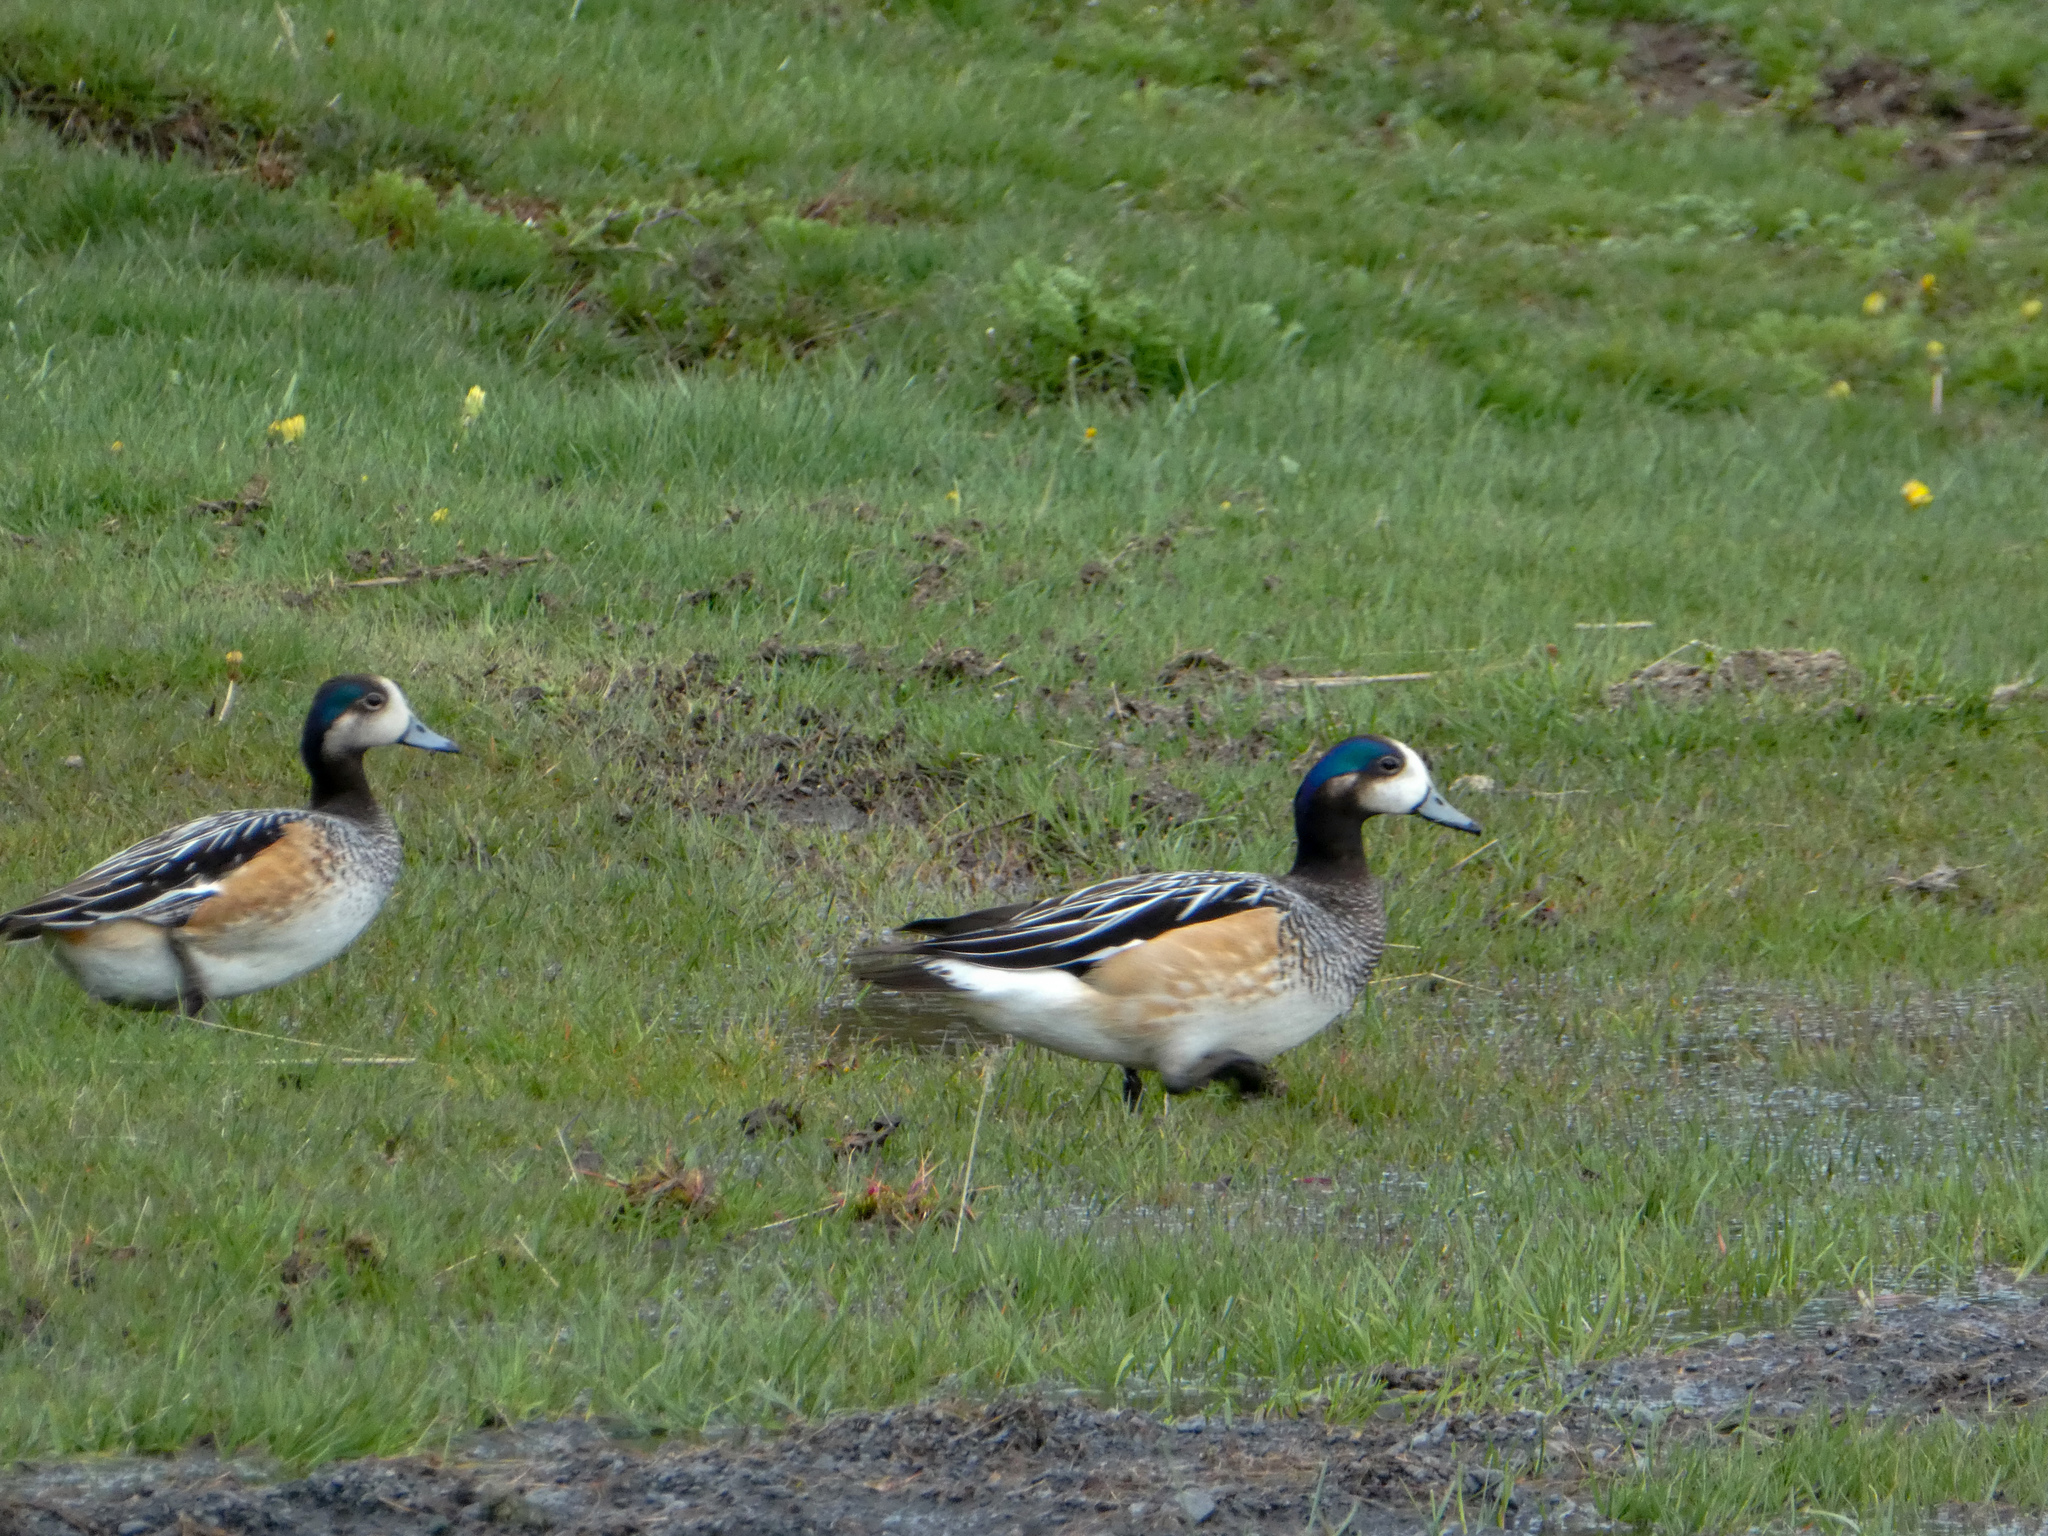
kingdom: Animalia
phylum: Chordata
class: Aves
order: Anseriformes
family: Anatidae
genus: Mareca
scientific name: Mareca sibilatrix
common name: Chiloe wigeon
